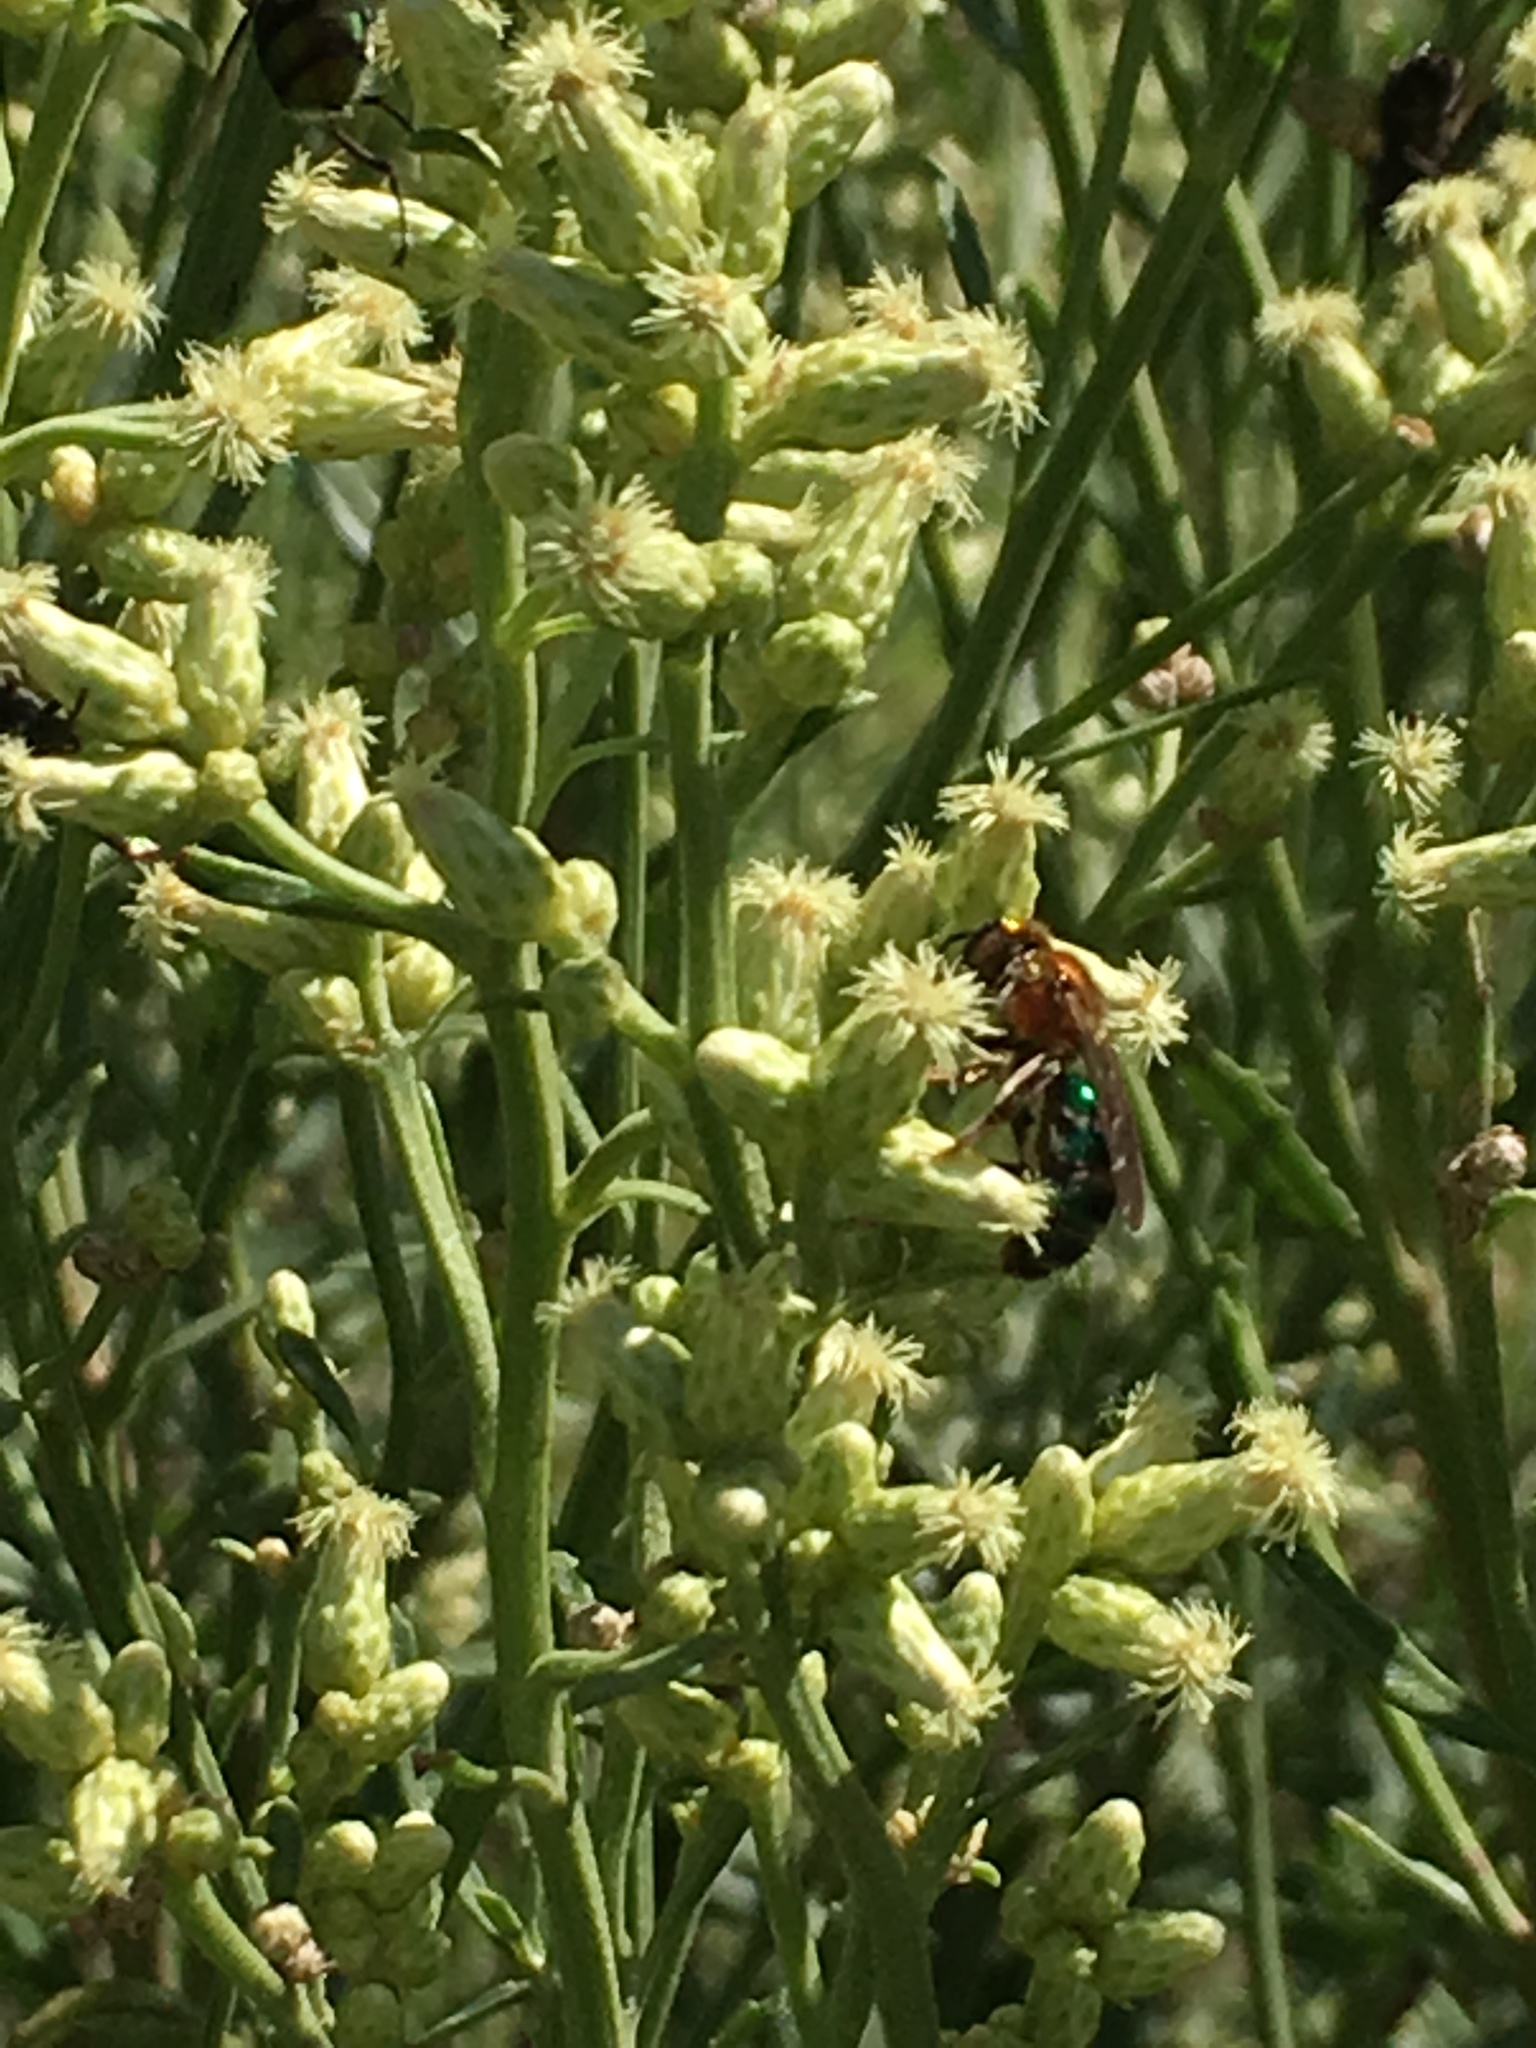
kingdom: Animalia
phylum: Arthropoda
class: Insecta
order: Hymenoptera
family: Halictidae
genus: Augochloropsis
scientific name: Augochloropsis tupacamaru
